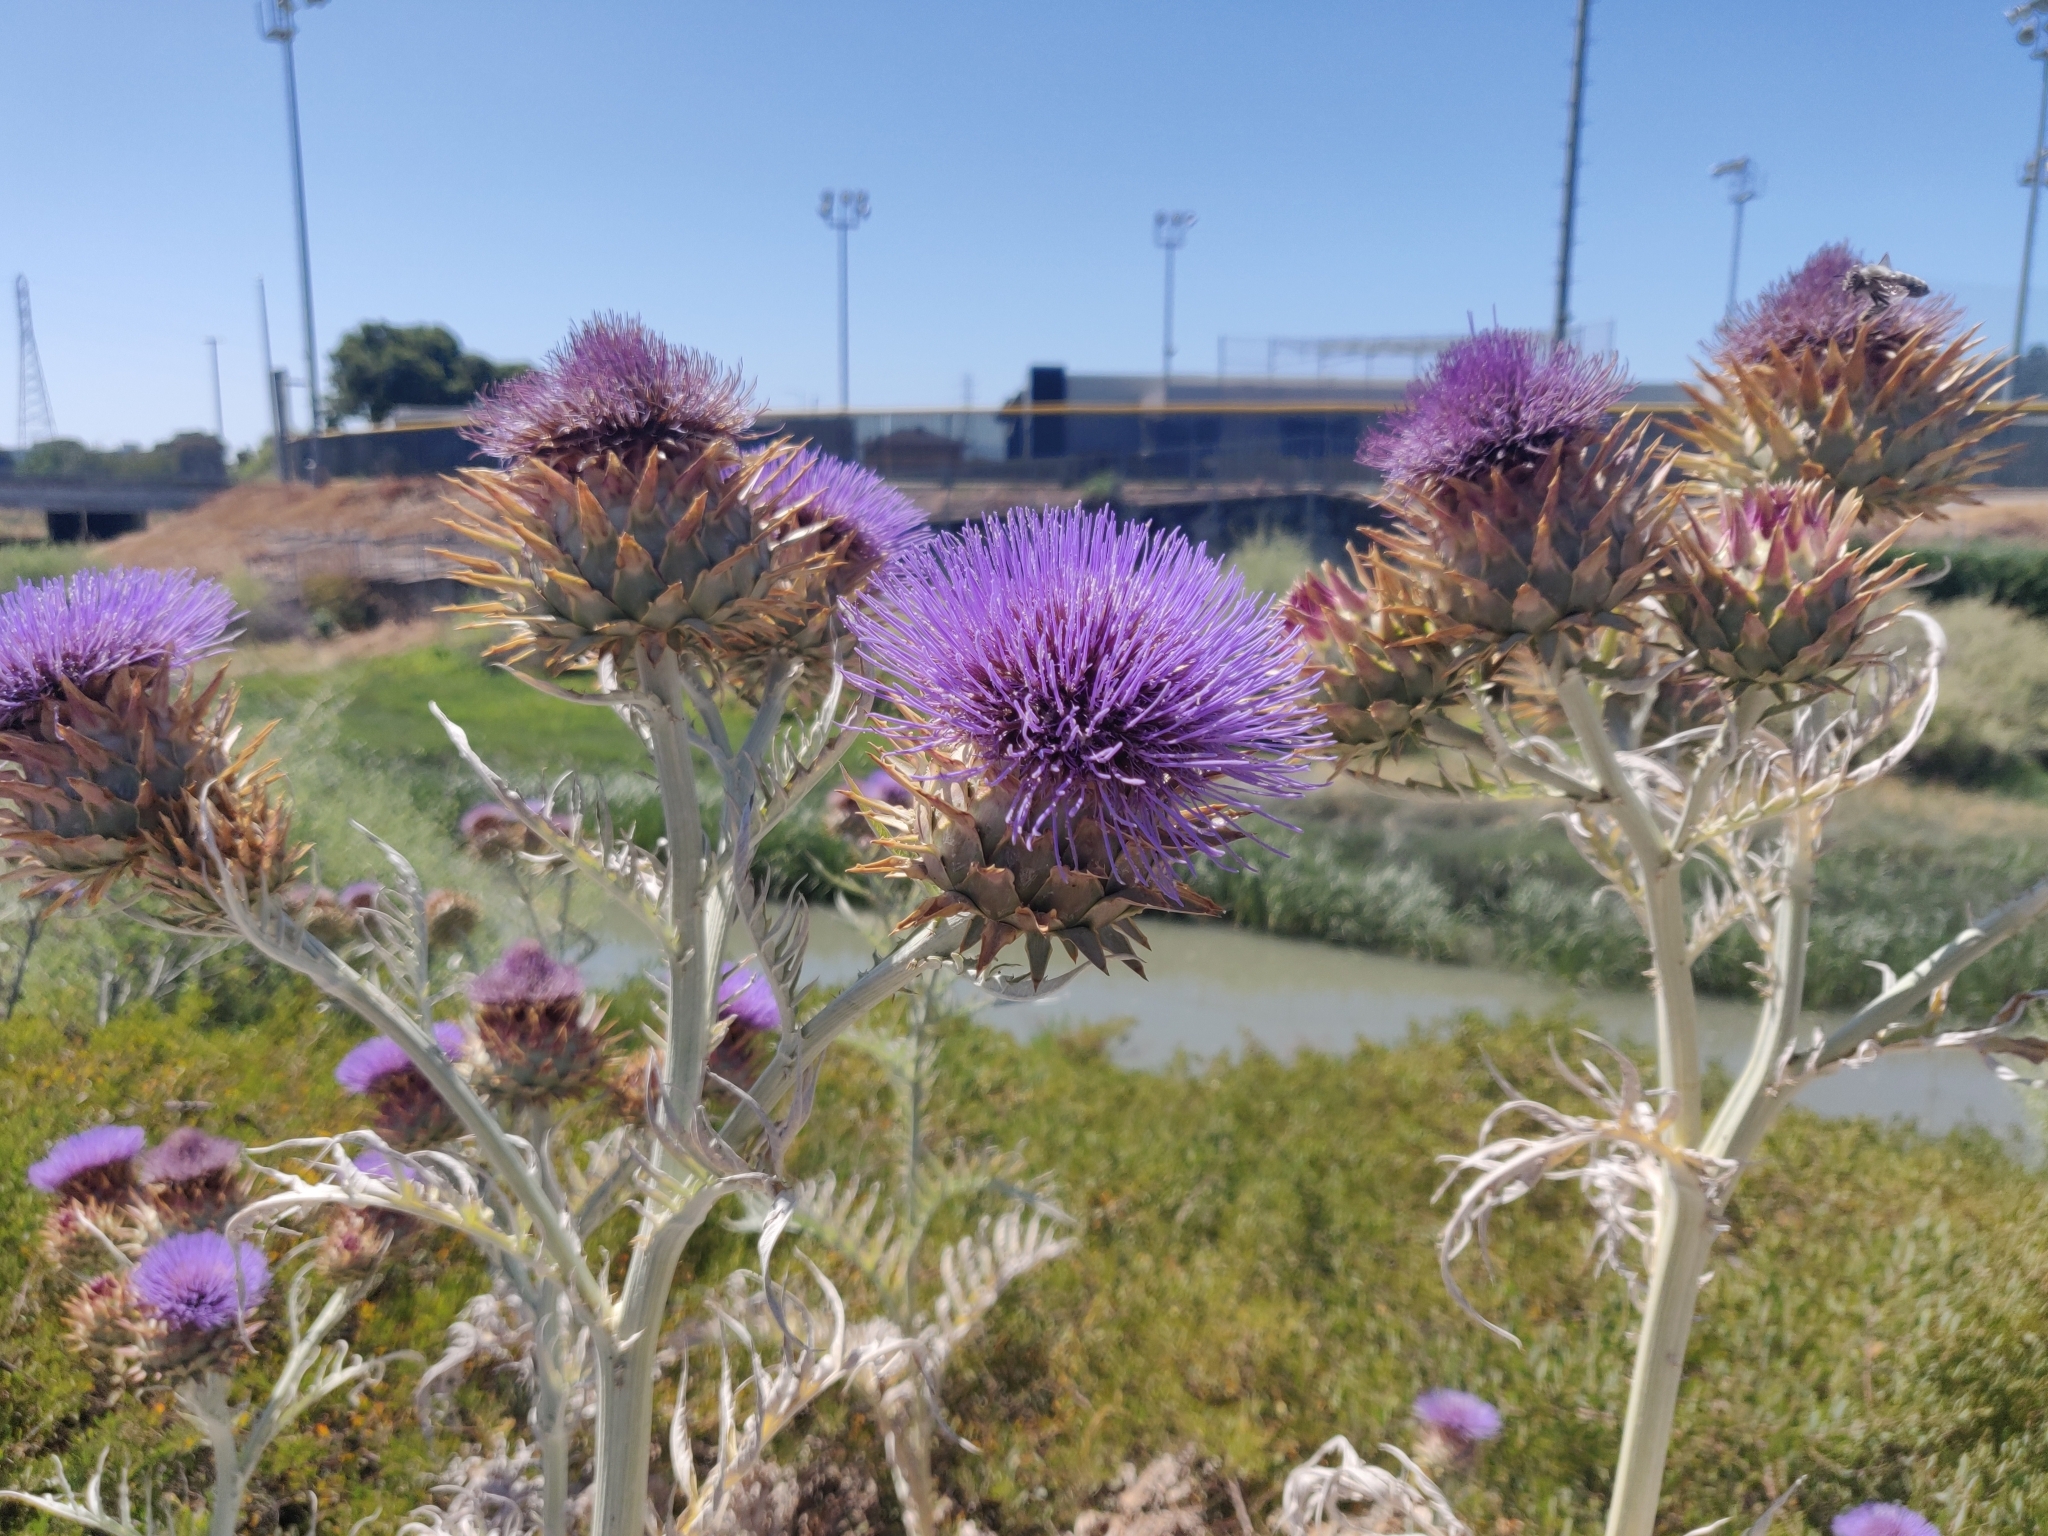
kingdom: Plantae
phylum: Tracheophyta
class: Magnoliopsida
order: Asterales
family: Asteraceae
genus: Cynara
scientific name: Cynara cardunculus
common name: Globe artichoke
